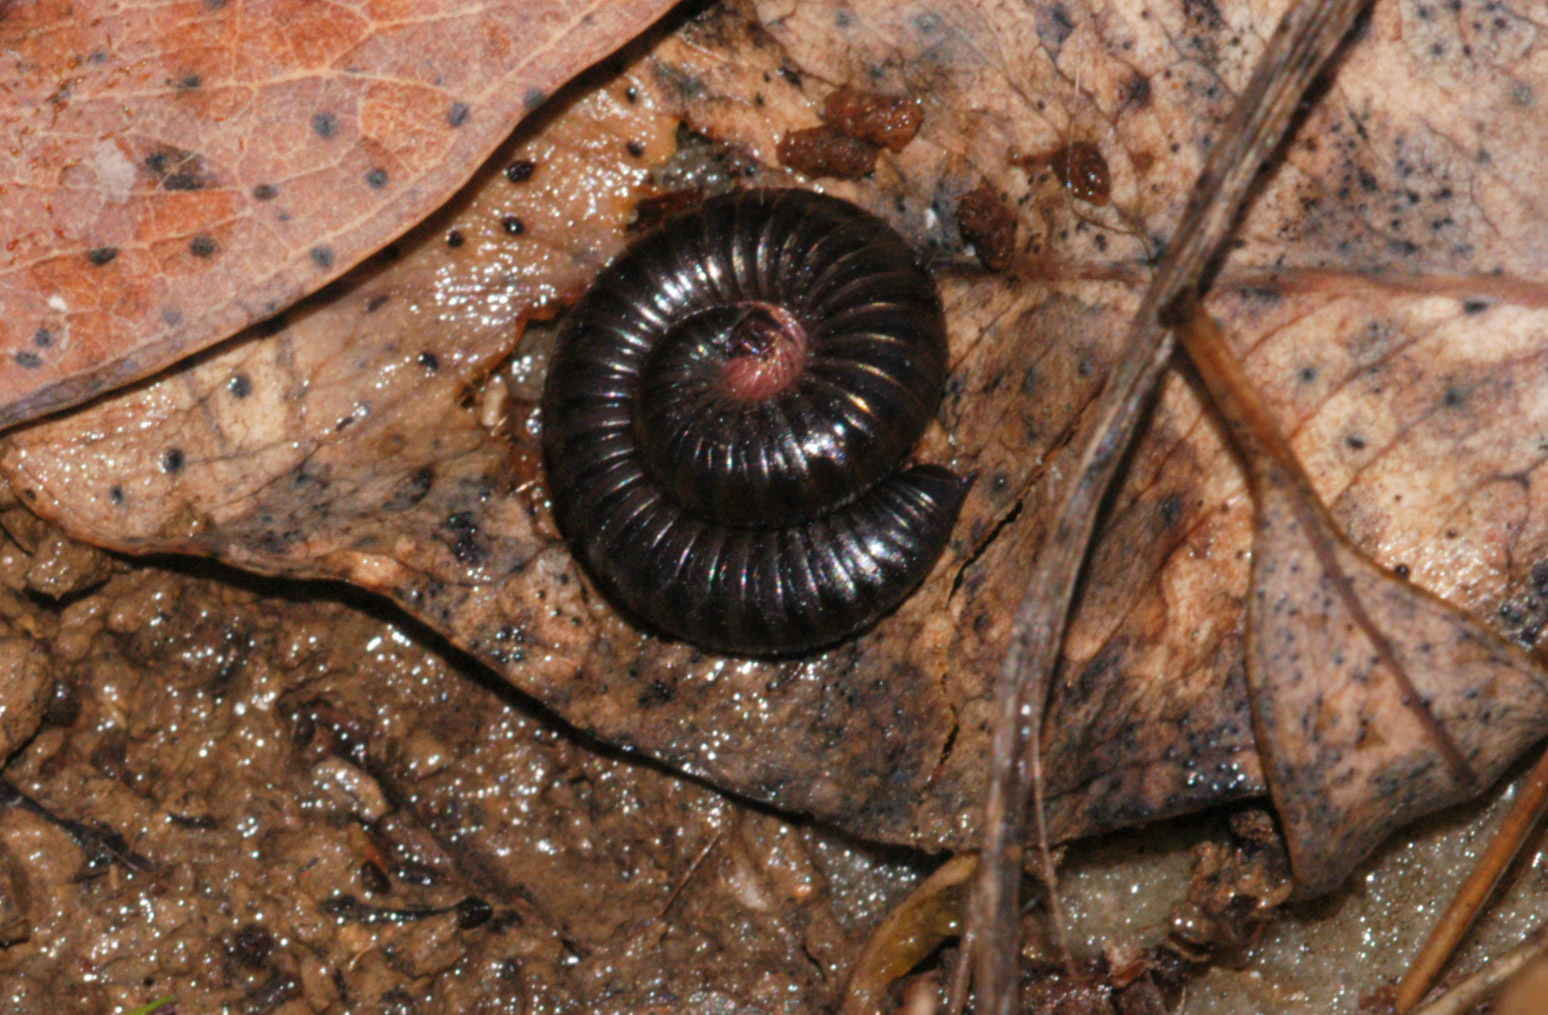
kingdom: Animalia
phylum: Arthropoda
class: Diplopoda
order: Julida
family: Julidae
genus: Ommatoiulus
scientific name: Ommatoiulus moreleti
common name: Portuguese millipede
